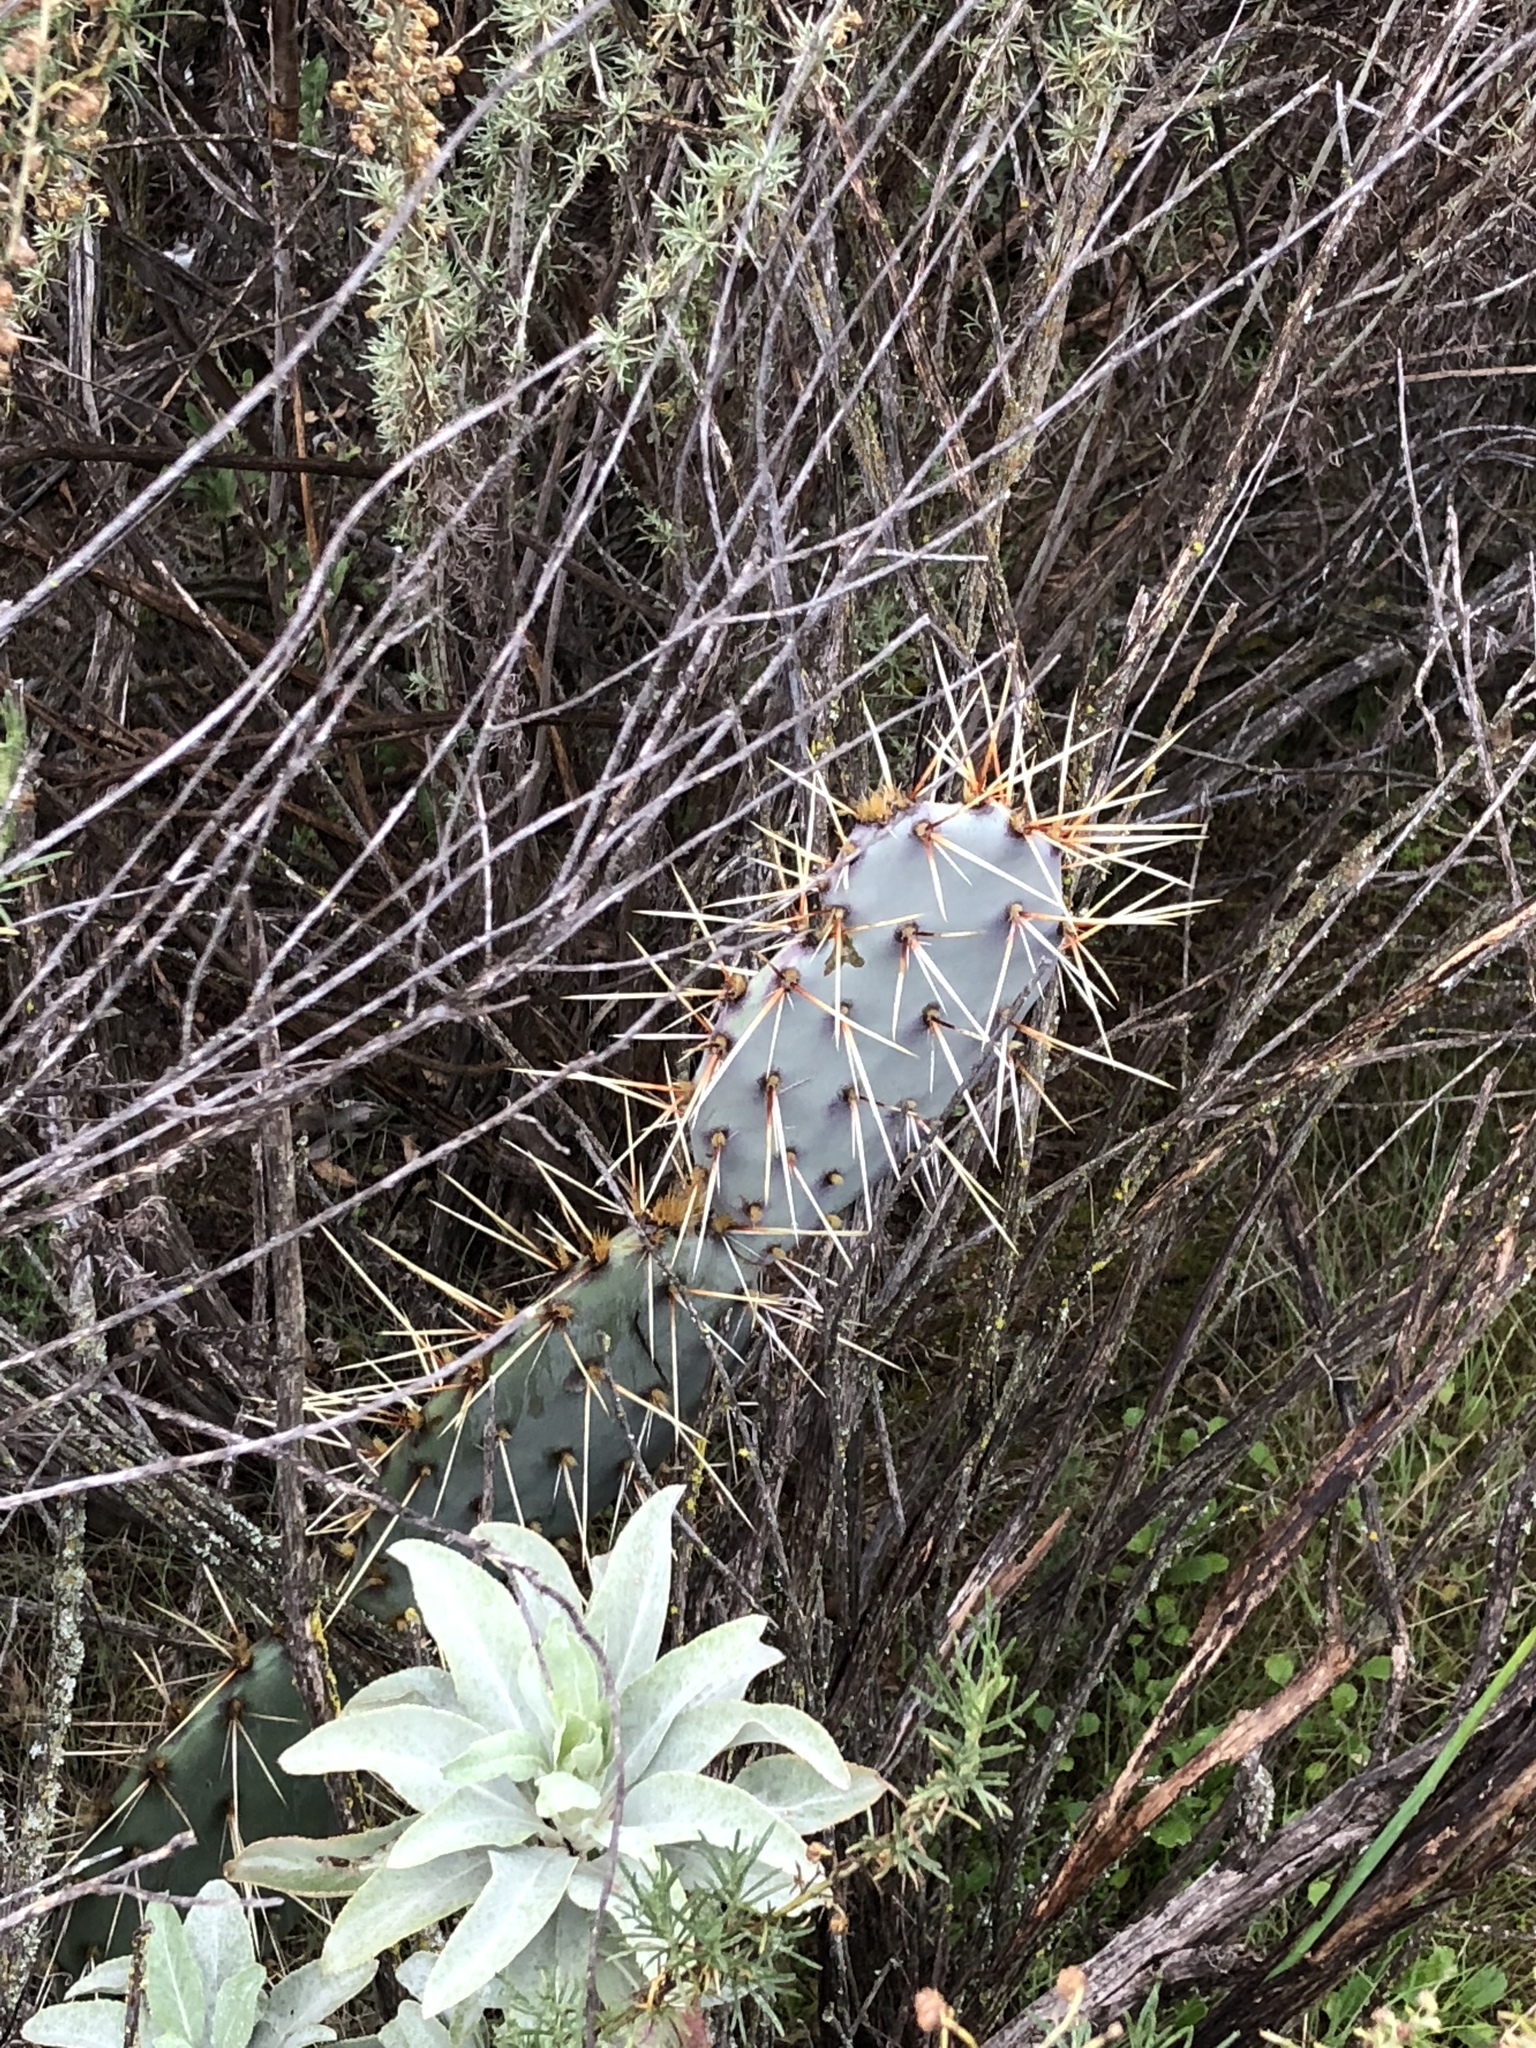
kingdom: Plantae
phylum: Tracheophyta
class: Magnoliopsida
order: Caryophyllales
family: Cactaceae
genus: Opuntia
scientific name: Opuntia littoralis
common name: Coastal prickly-pear
